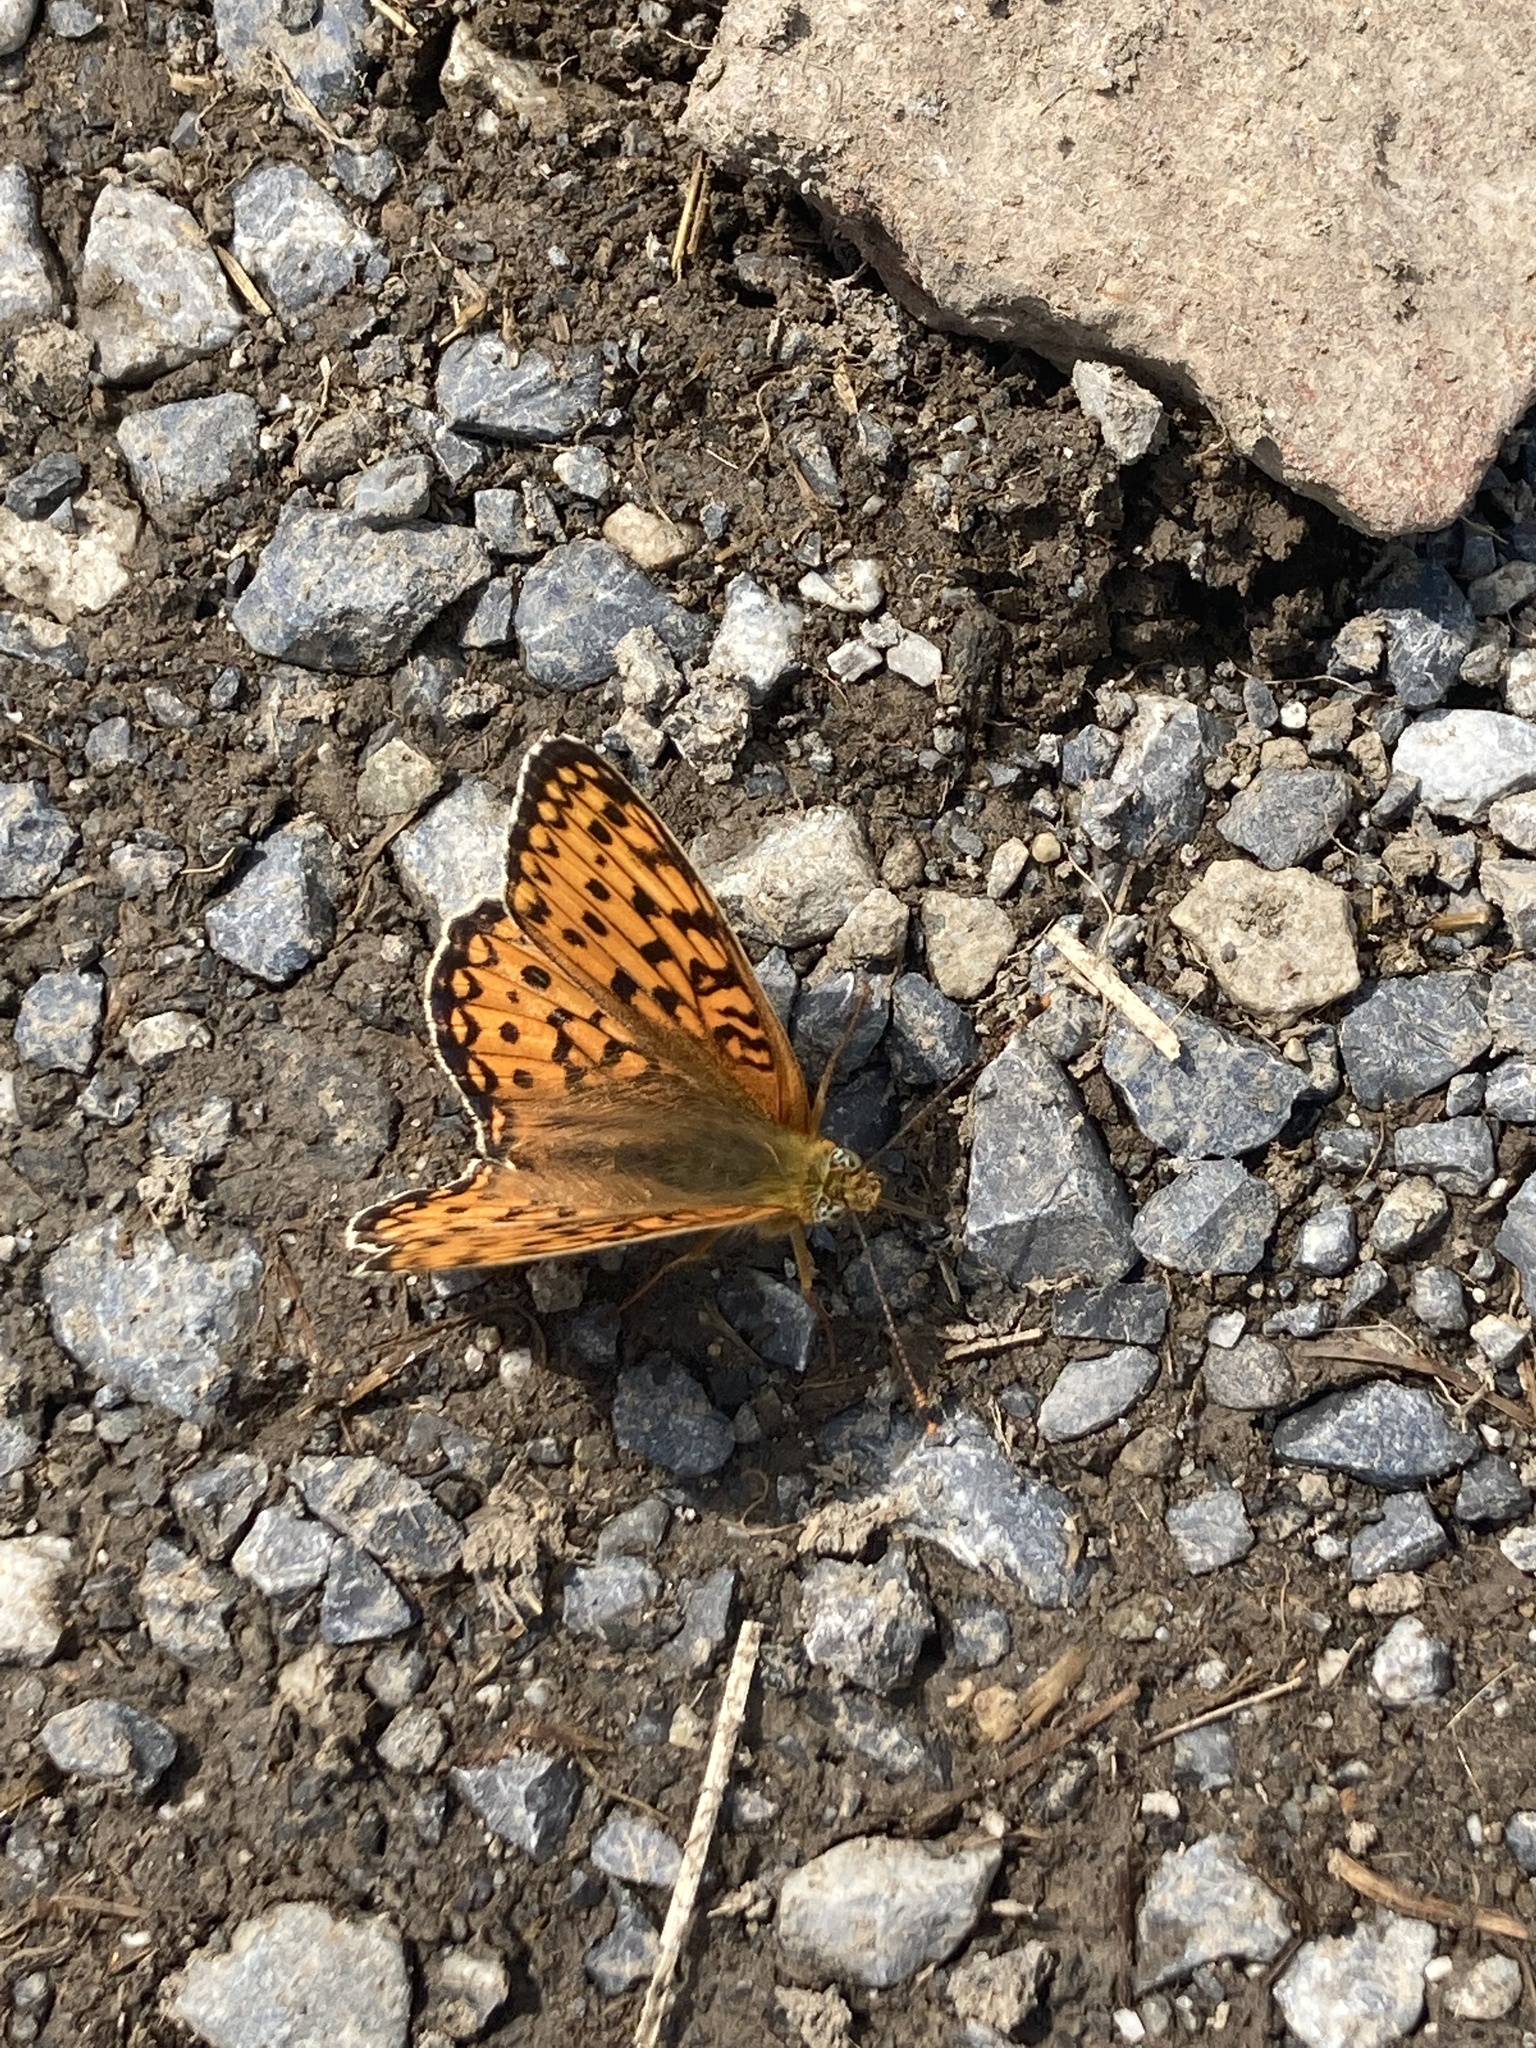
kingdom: Animalia
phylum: Arthropoda
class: Insecta
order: Lepidoptera
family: Nymphalidae
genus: Fabriciana
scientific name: Fabriciana niobe
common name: Niobe fritillary
